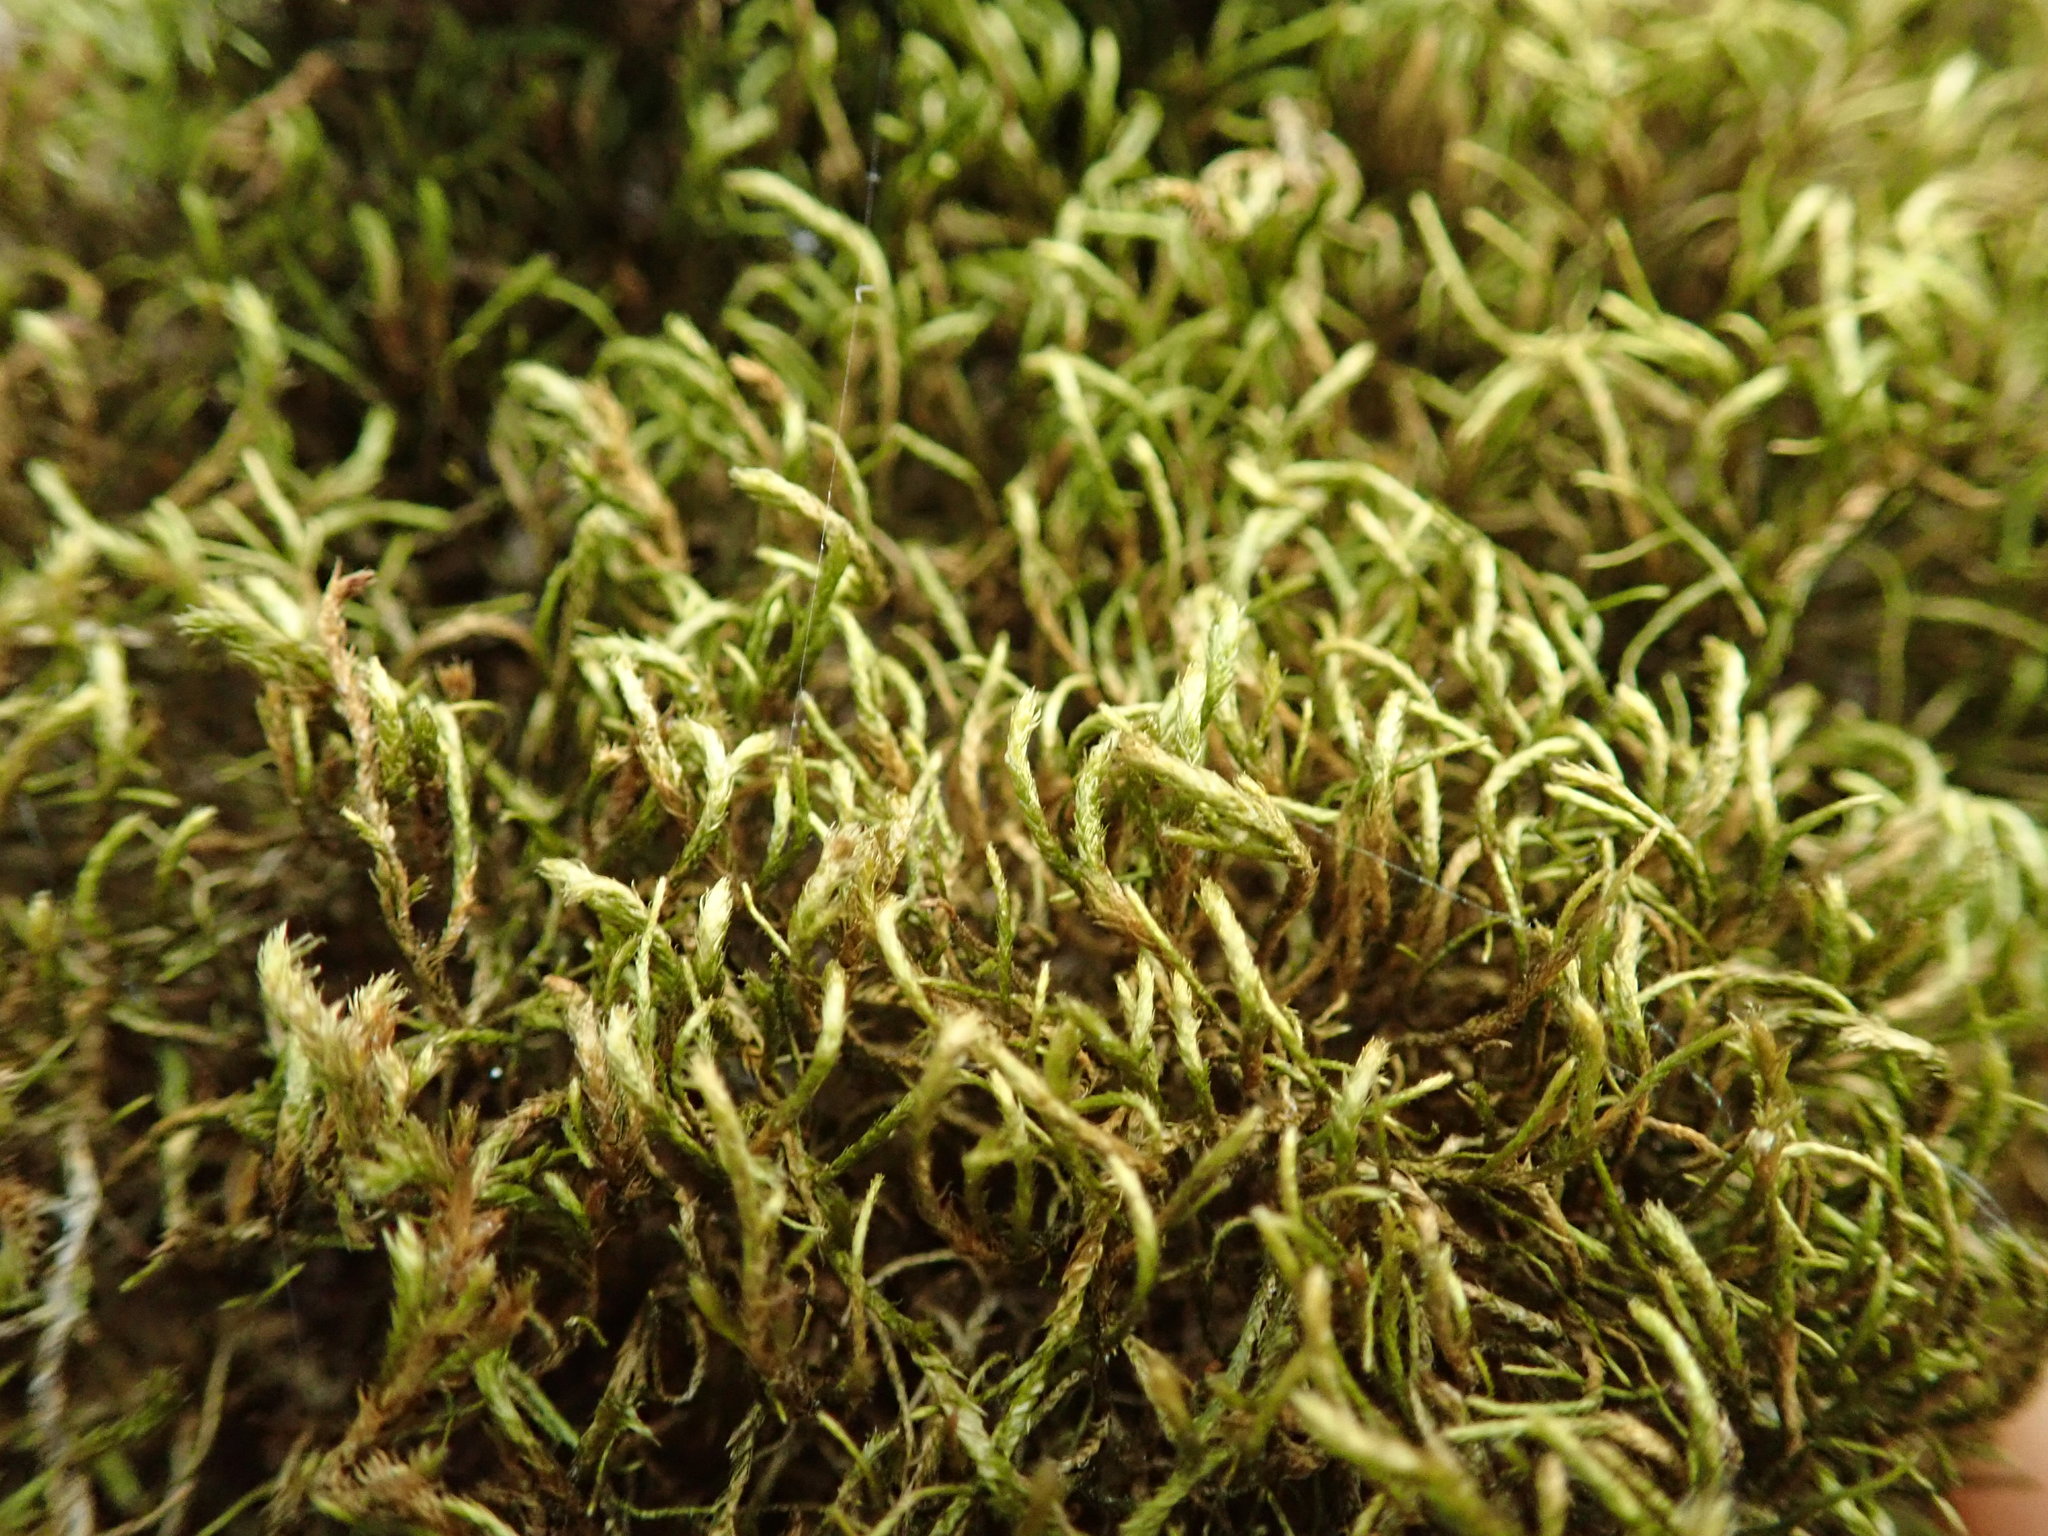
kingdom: Plantae
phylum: Bryophyta
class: Bryopsida
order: Hypnales
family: Antitrichiaceae
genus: Antitrichia
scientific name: Antitrichia californica
